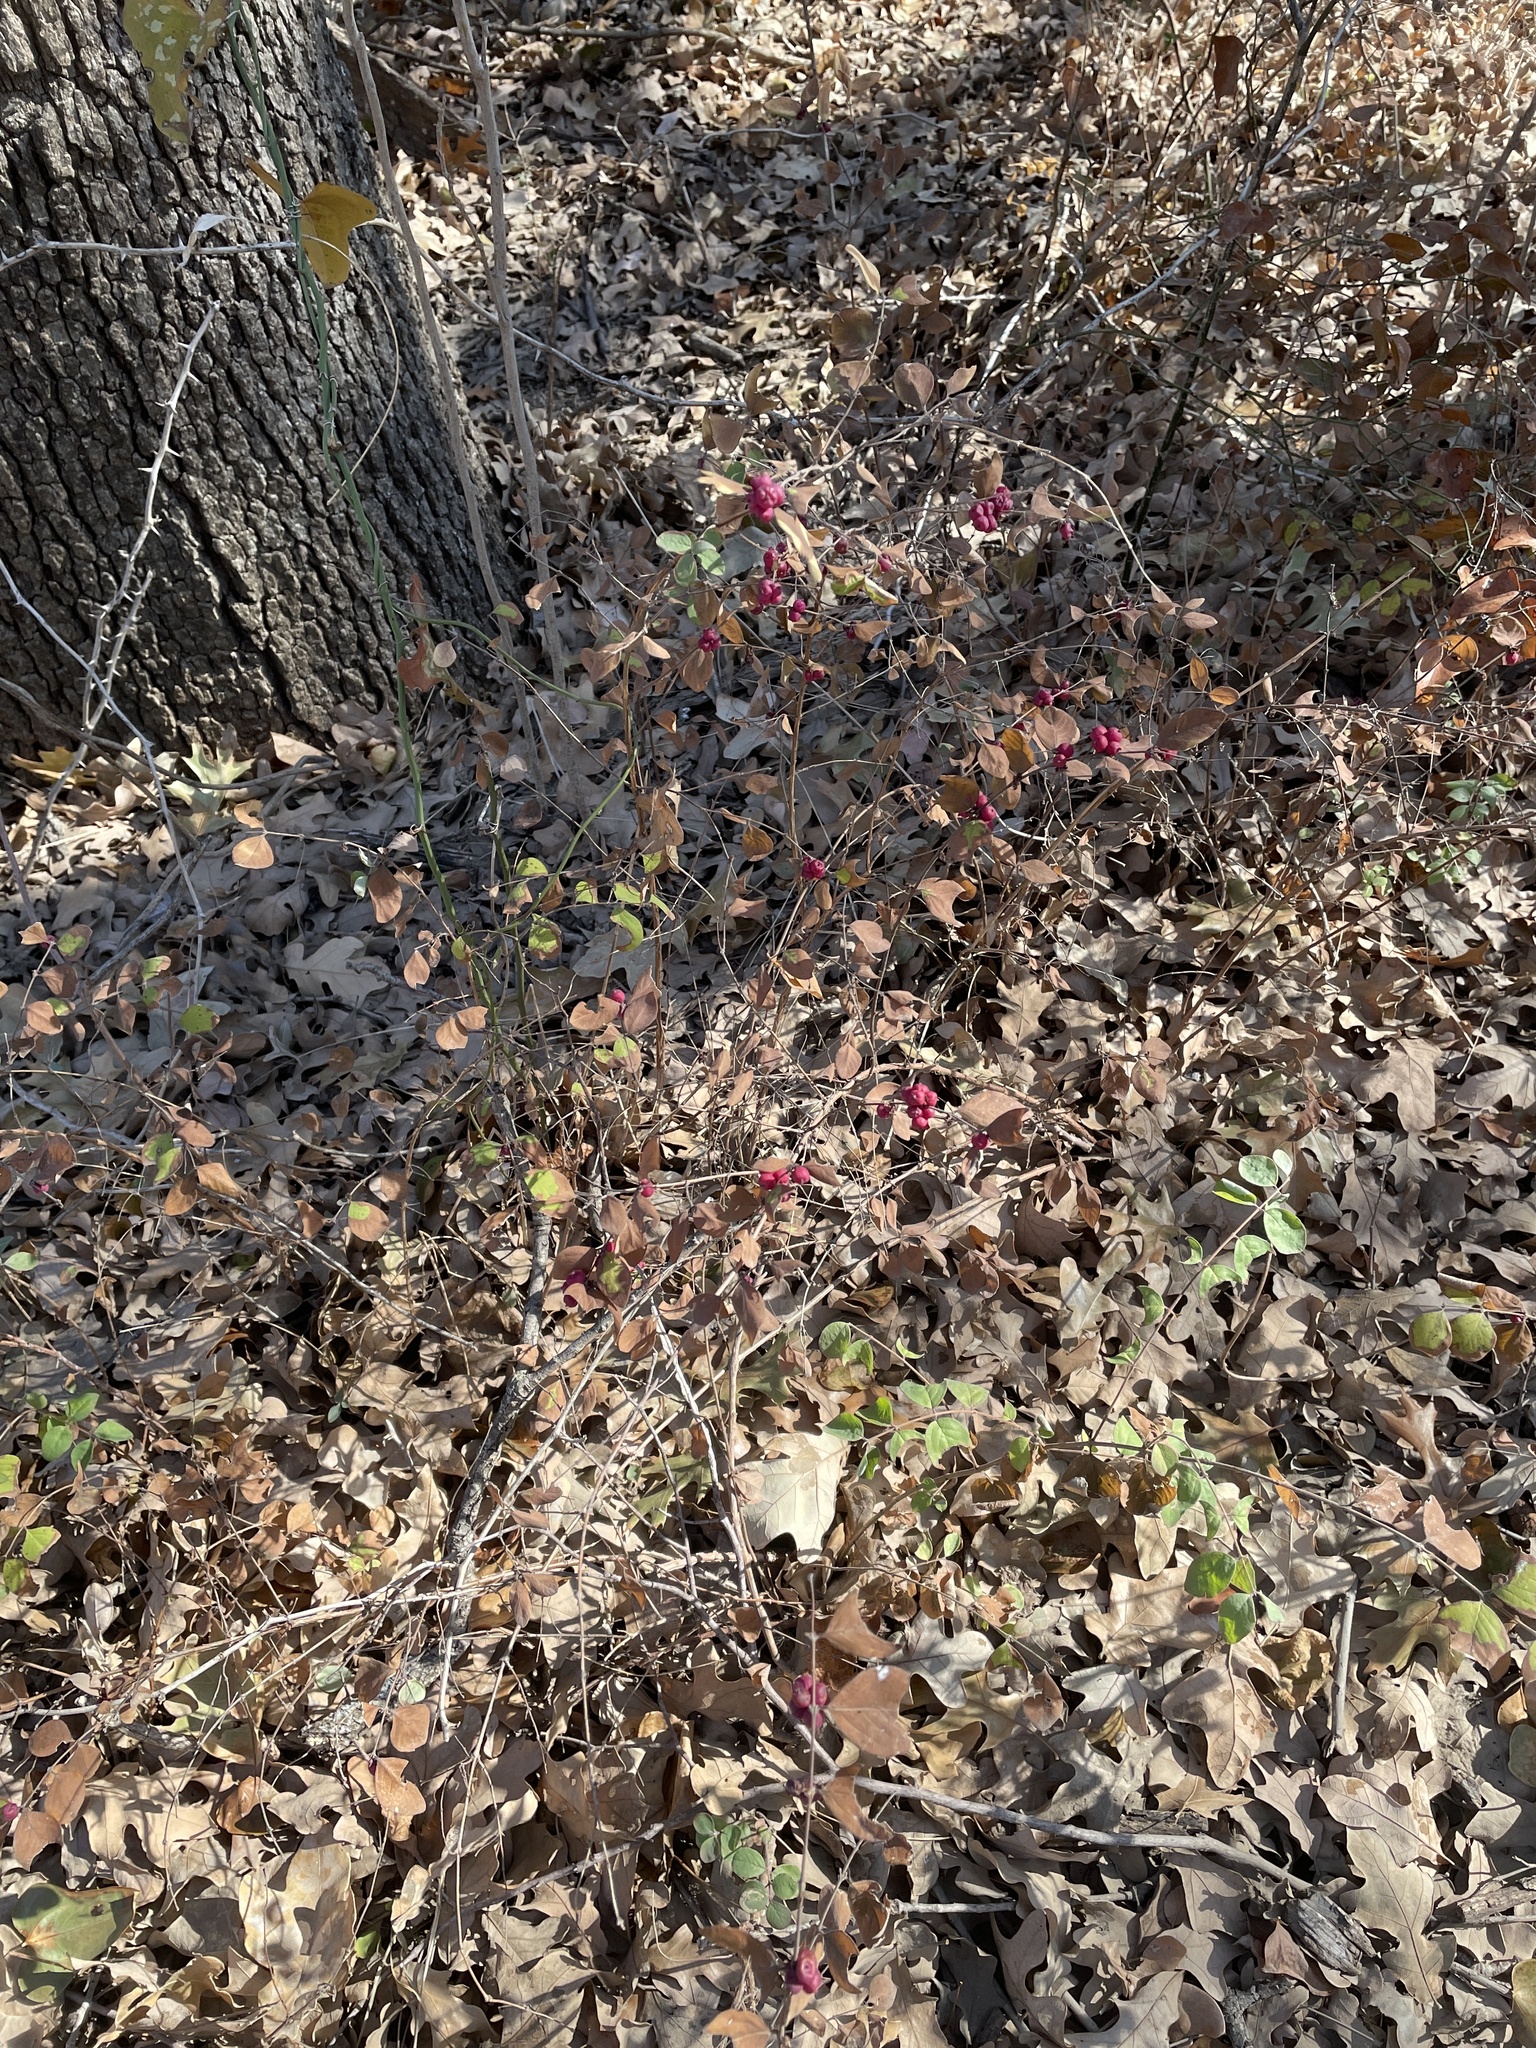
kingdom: Plantae
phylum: Tracheophyta
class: Magnoliopsida
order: Dipsacales
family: Caprifoliaceae
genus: Symphoricarpos
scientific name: Symphoricarpos orbiculatus
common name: Coralberry
